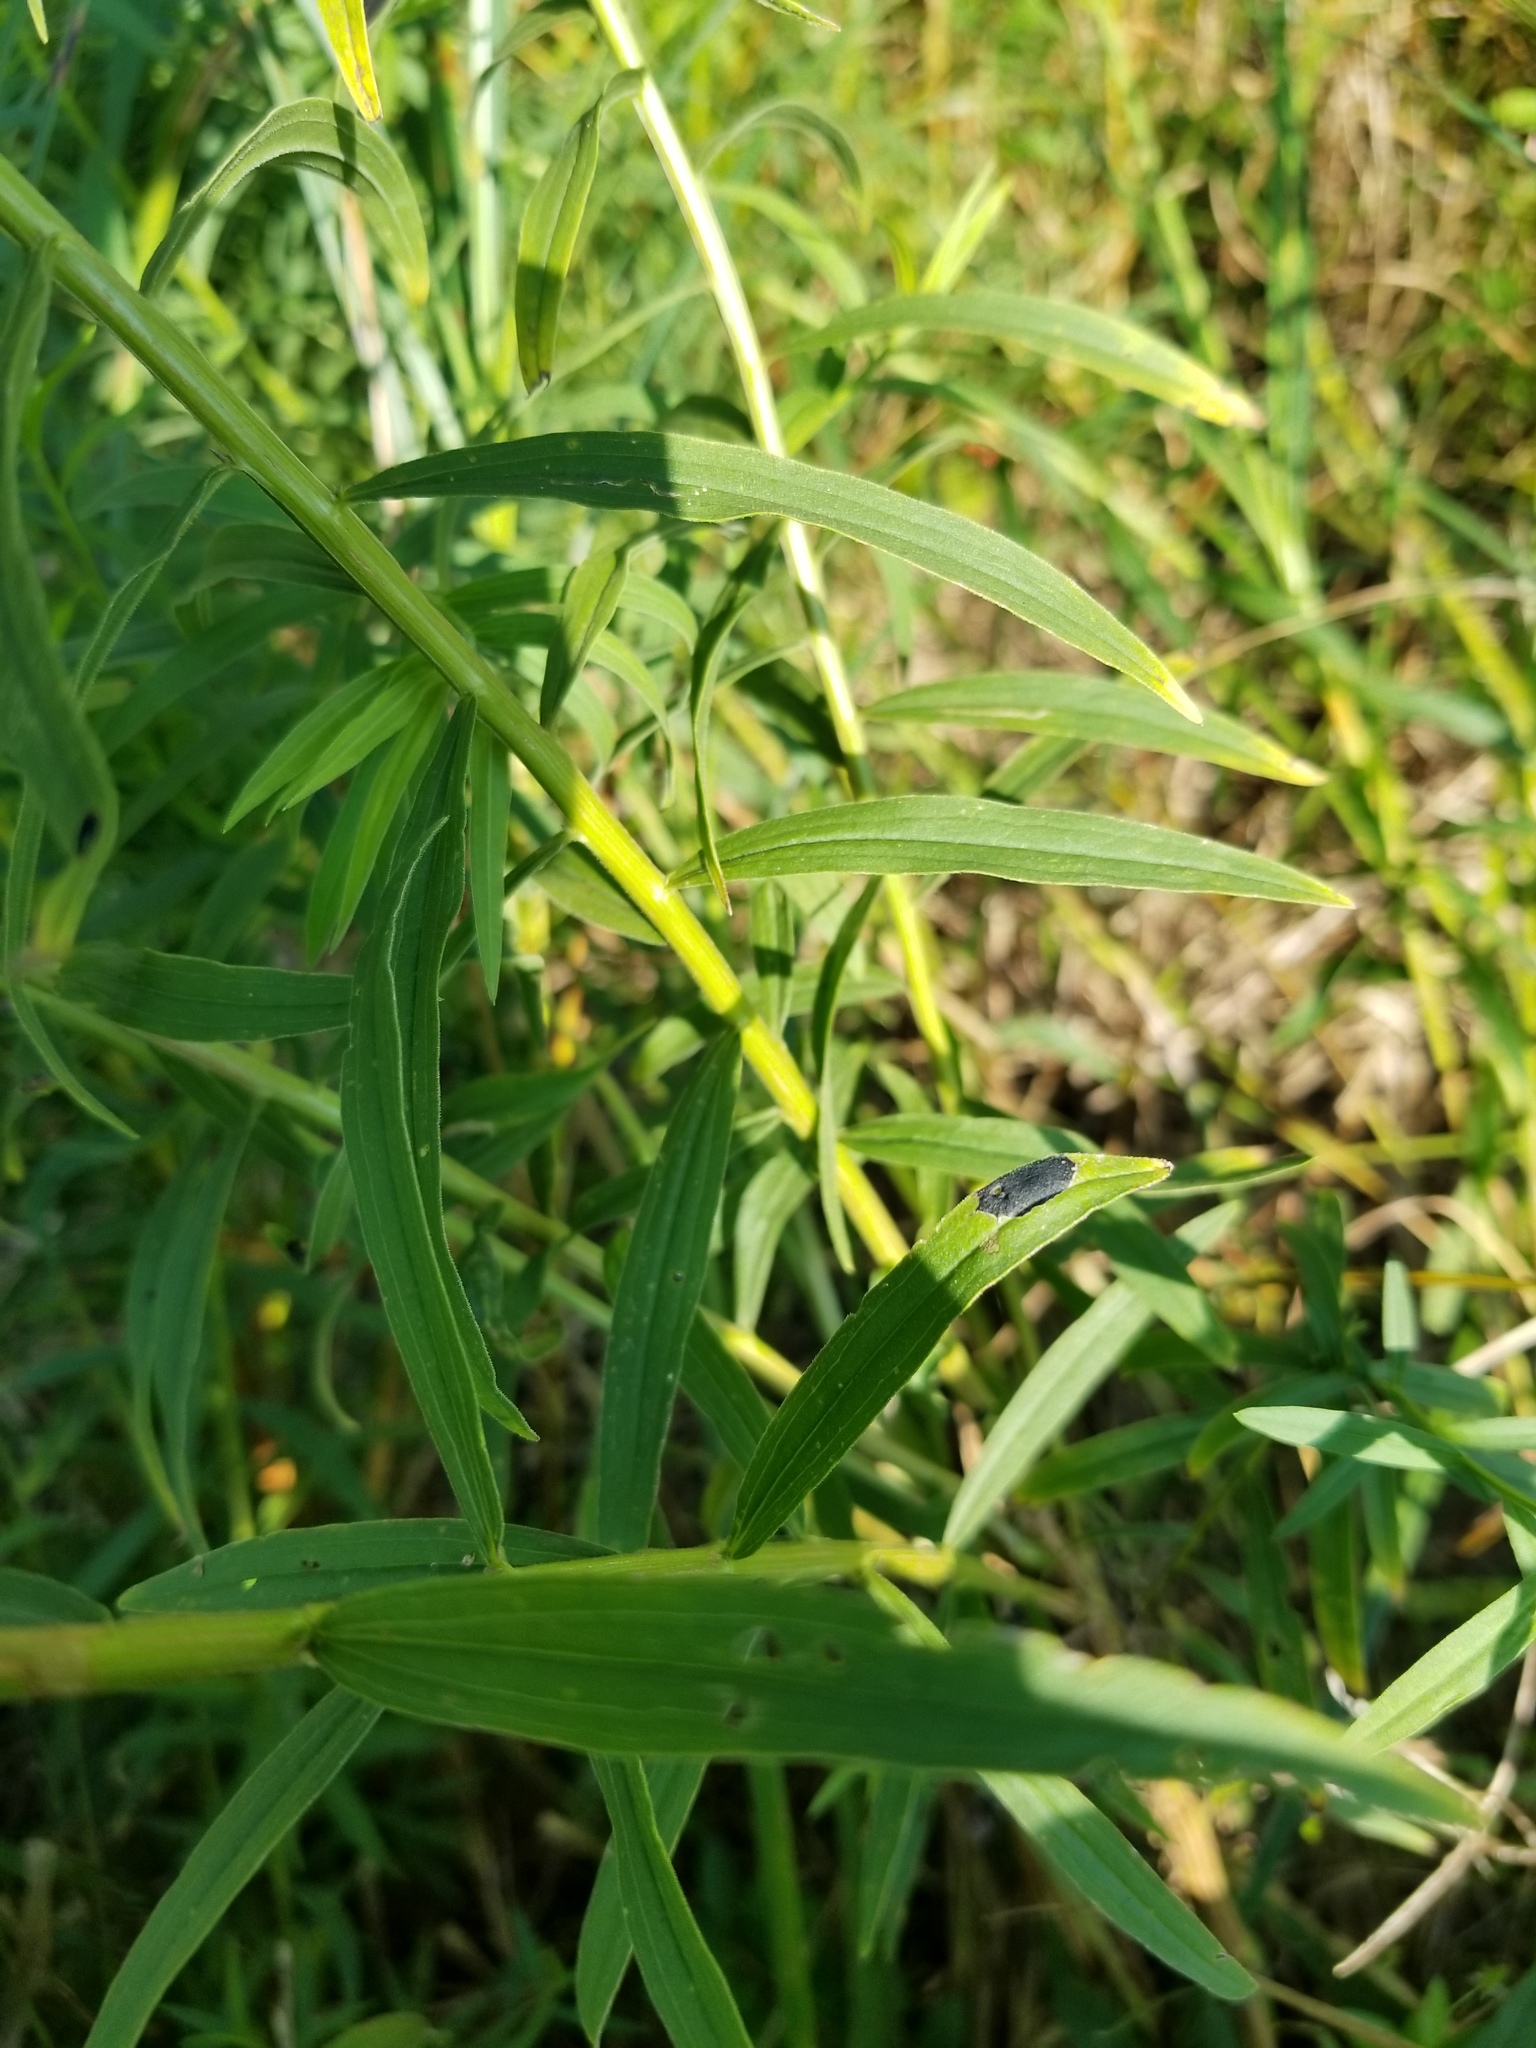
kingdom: Animalia
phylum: Arthropoda
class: Insecta
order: Diptera
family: Cecidomyiidae
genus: Asteromyia
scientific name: Asteromyia euthamiae
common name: Euthamia leaf gall midge
